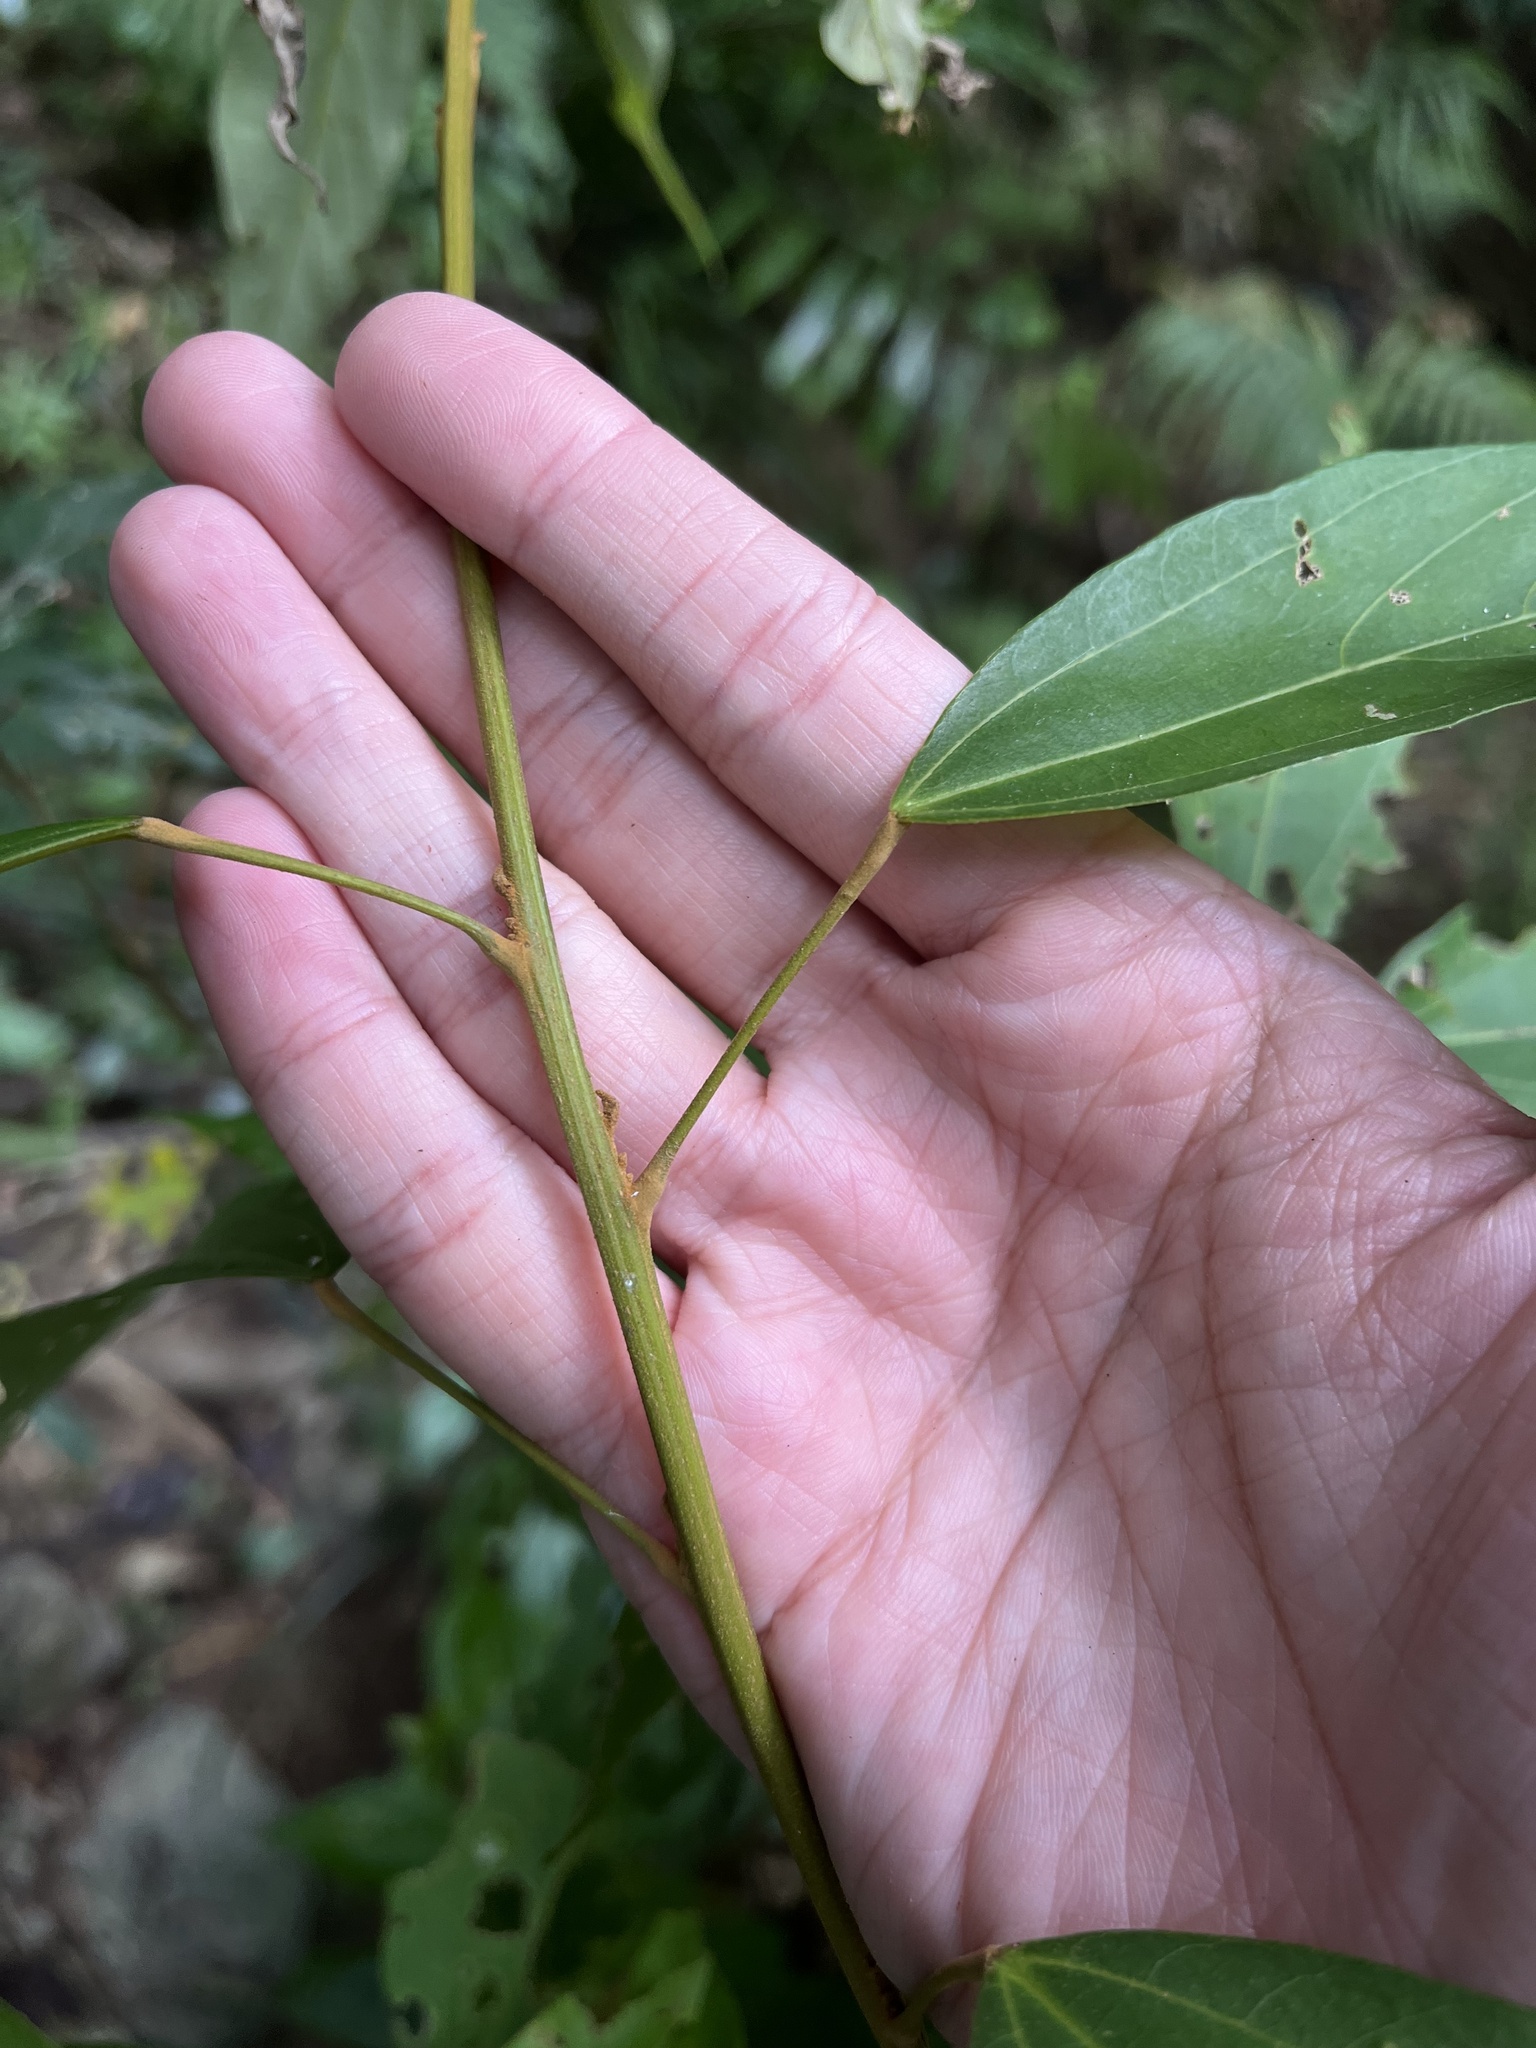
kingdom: Plantae
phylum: Tracheophyta
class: Magnoliopsida
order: Malpighiales
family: Euphorbiaceae
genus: Mallotus
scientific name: Mallotus philippensis
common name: Kamala tree
